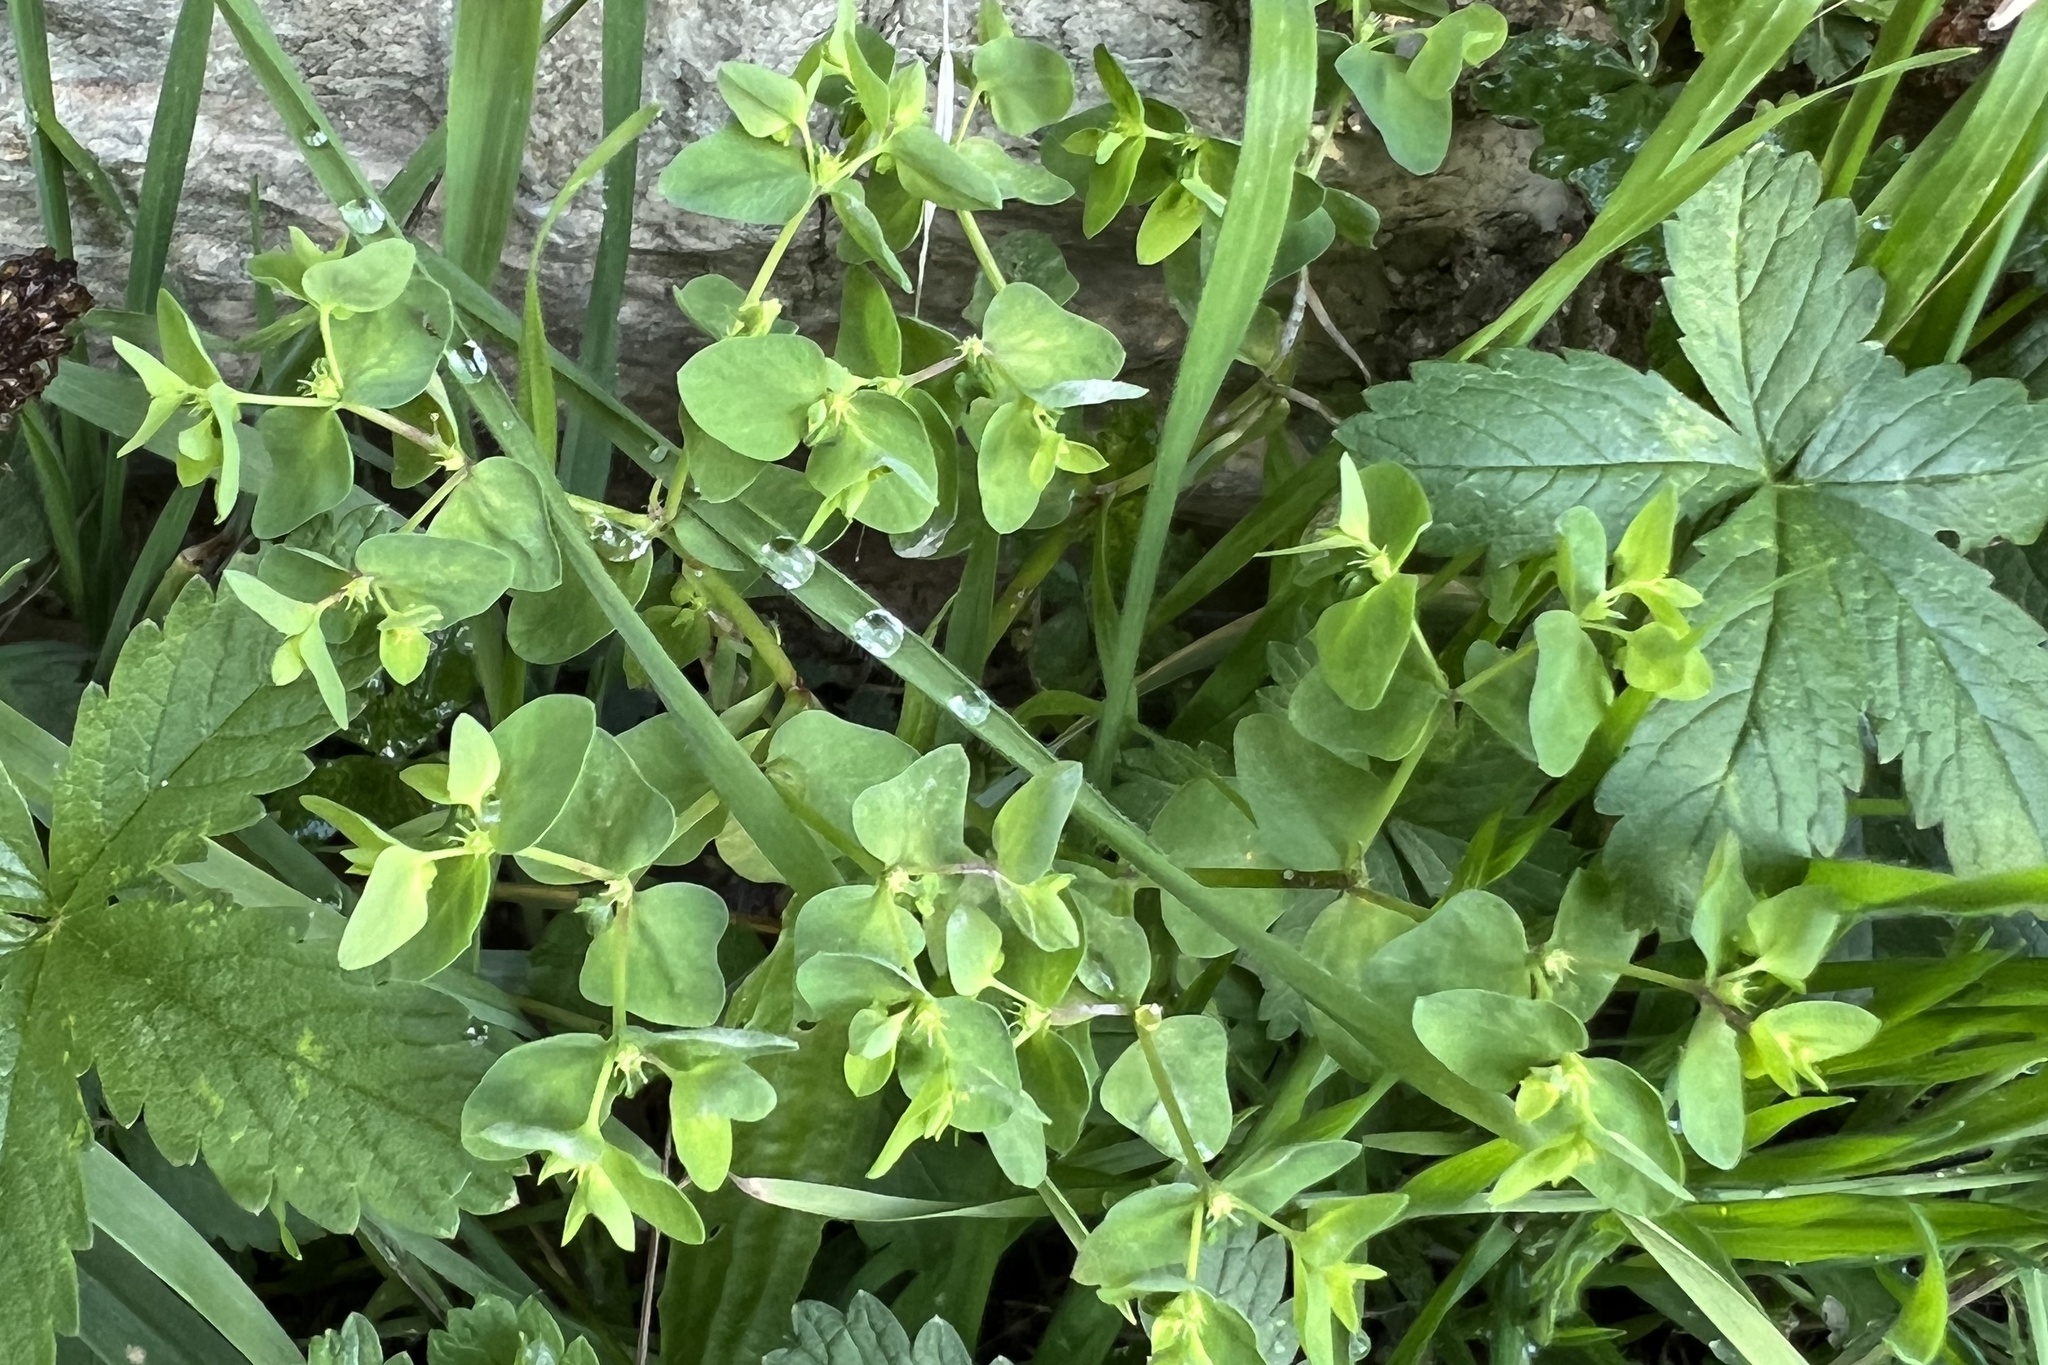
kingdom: Plantae
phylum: Tracheophyta
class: Magnoliopsida
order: Malpighiales
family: Euphorbiaceae
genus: Euphorbia
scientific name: Euphorbia peplus
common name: Petty spurge
